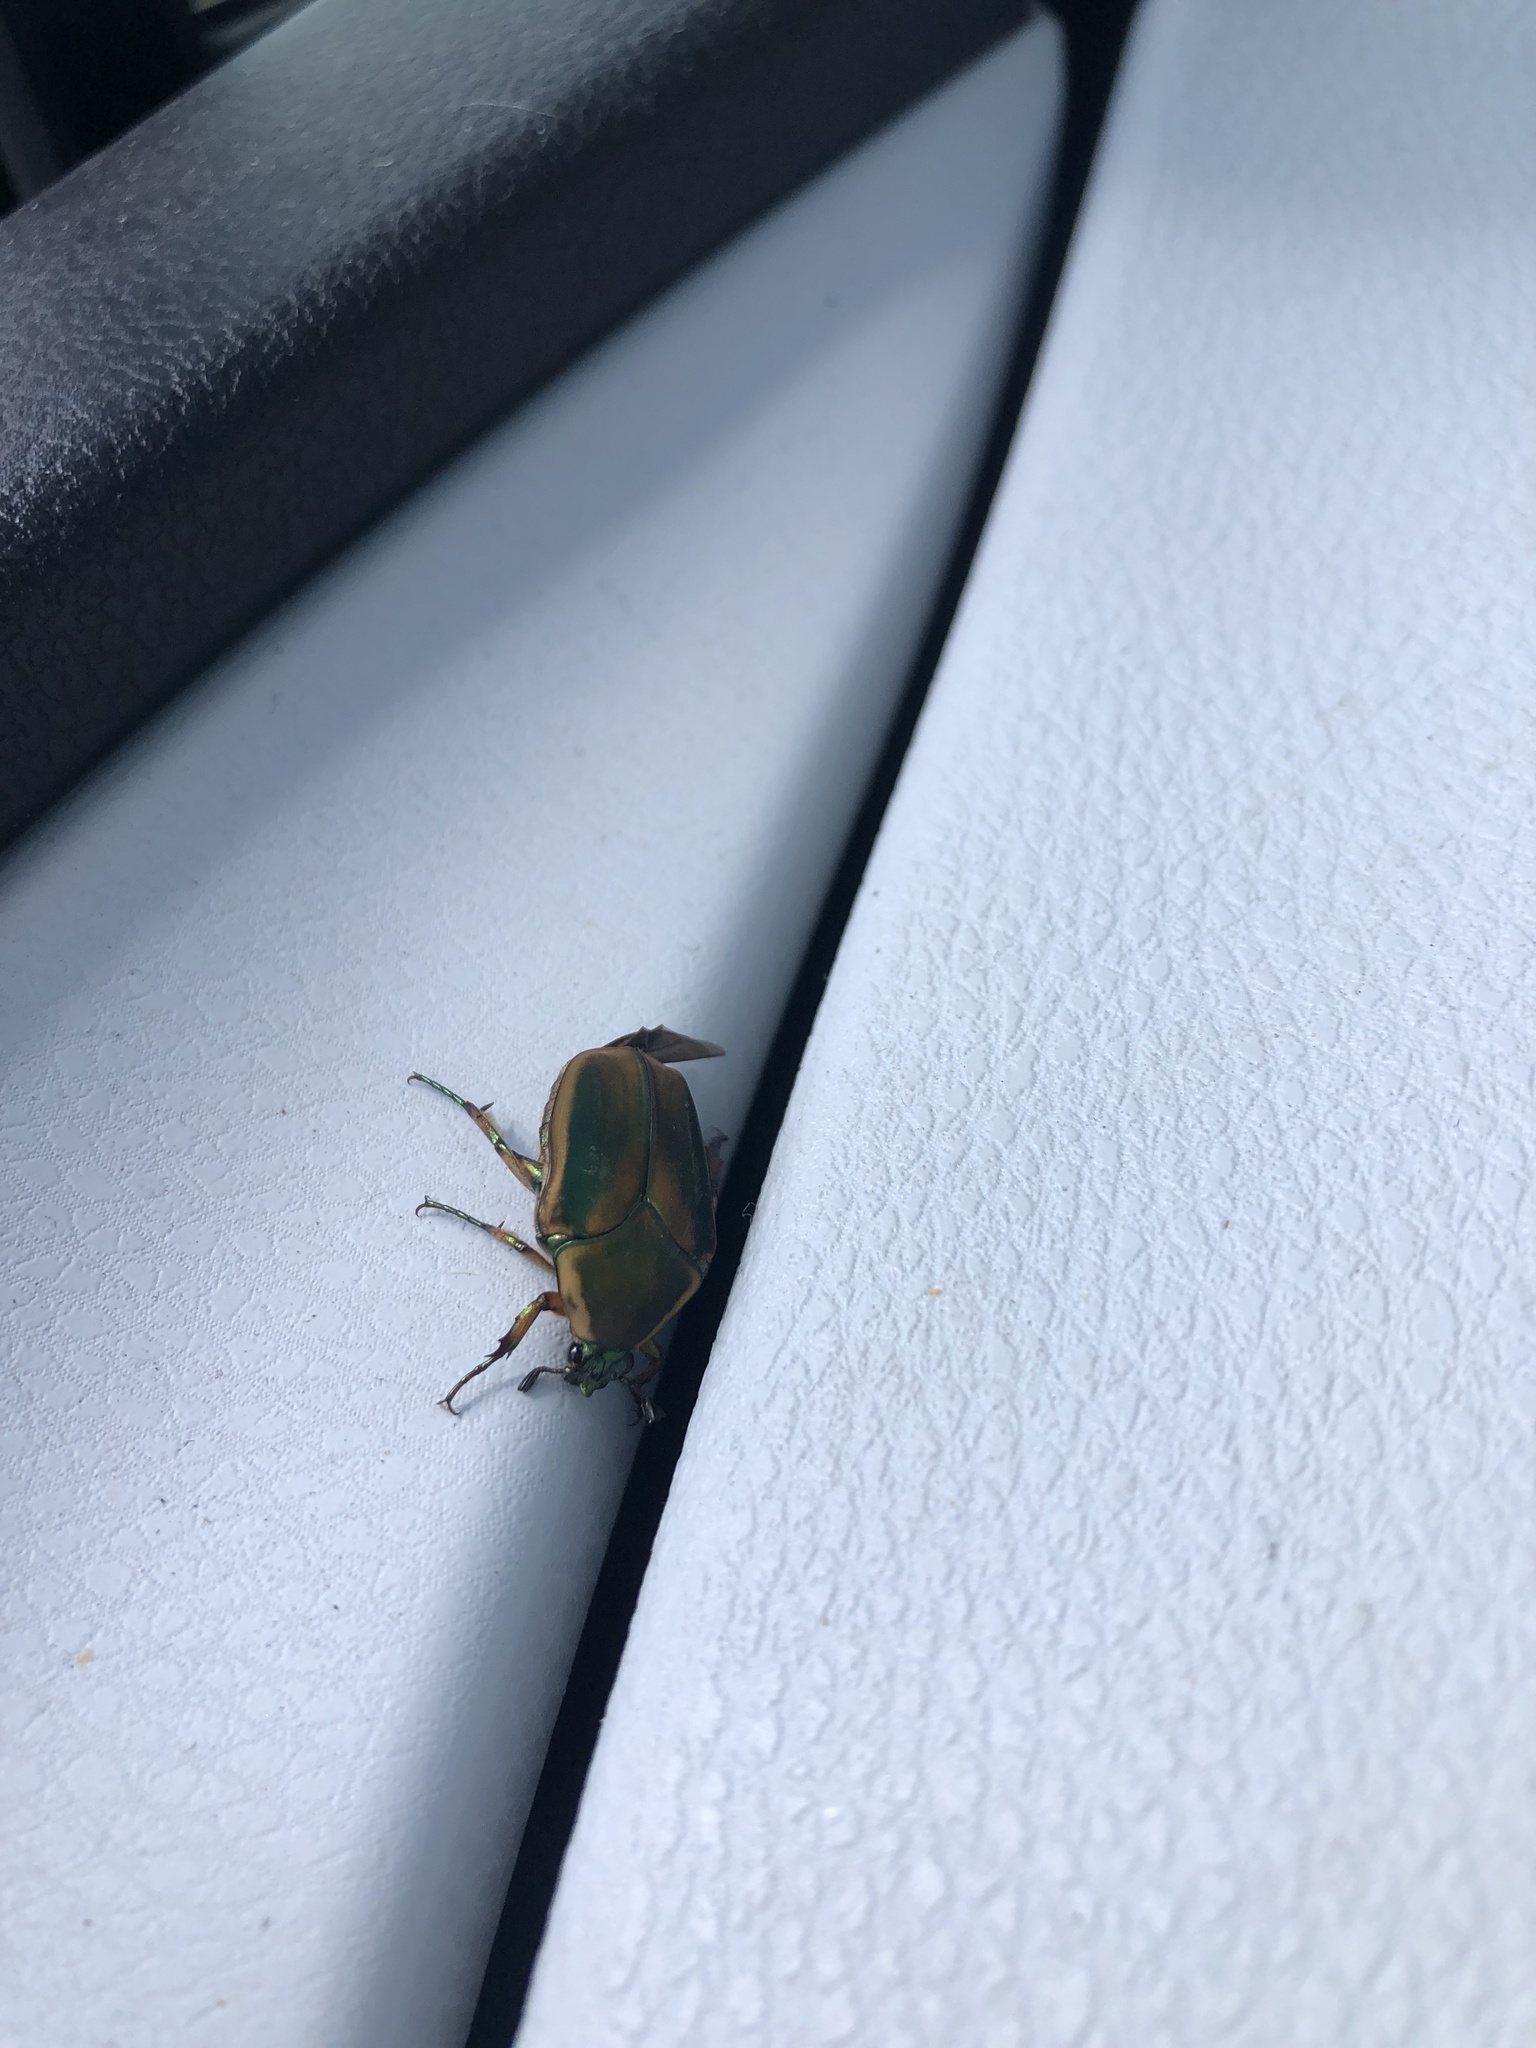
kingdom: Animalia
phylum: Arthropoda
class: Insecta
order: Coleoptera
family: Scarabaeidae
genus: Cotinis
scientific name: Cotinis nitida
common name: Common green june beetle
